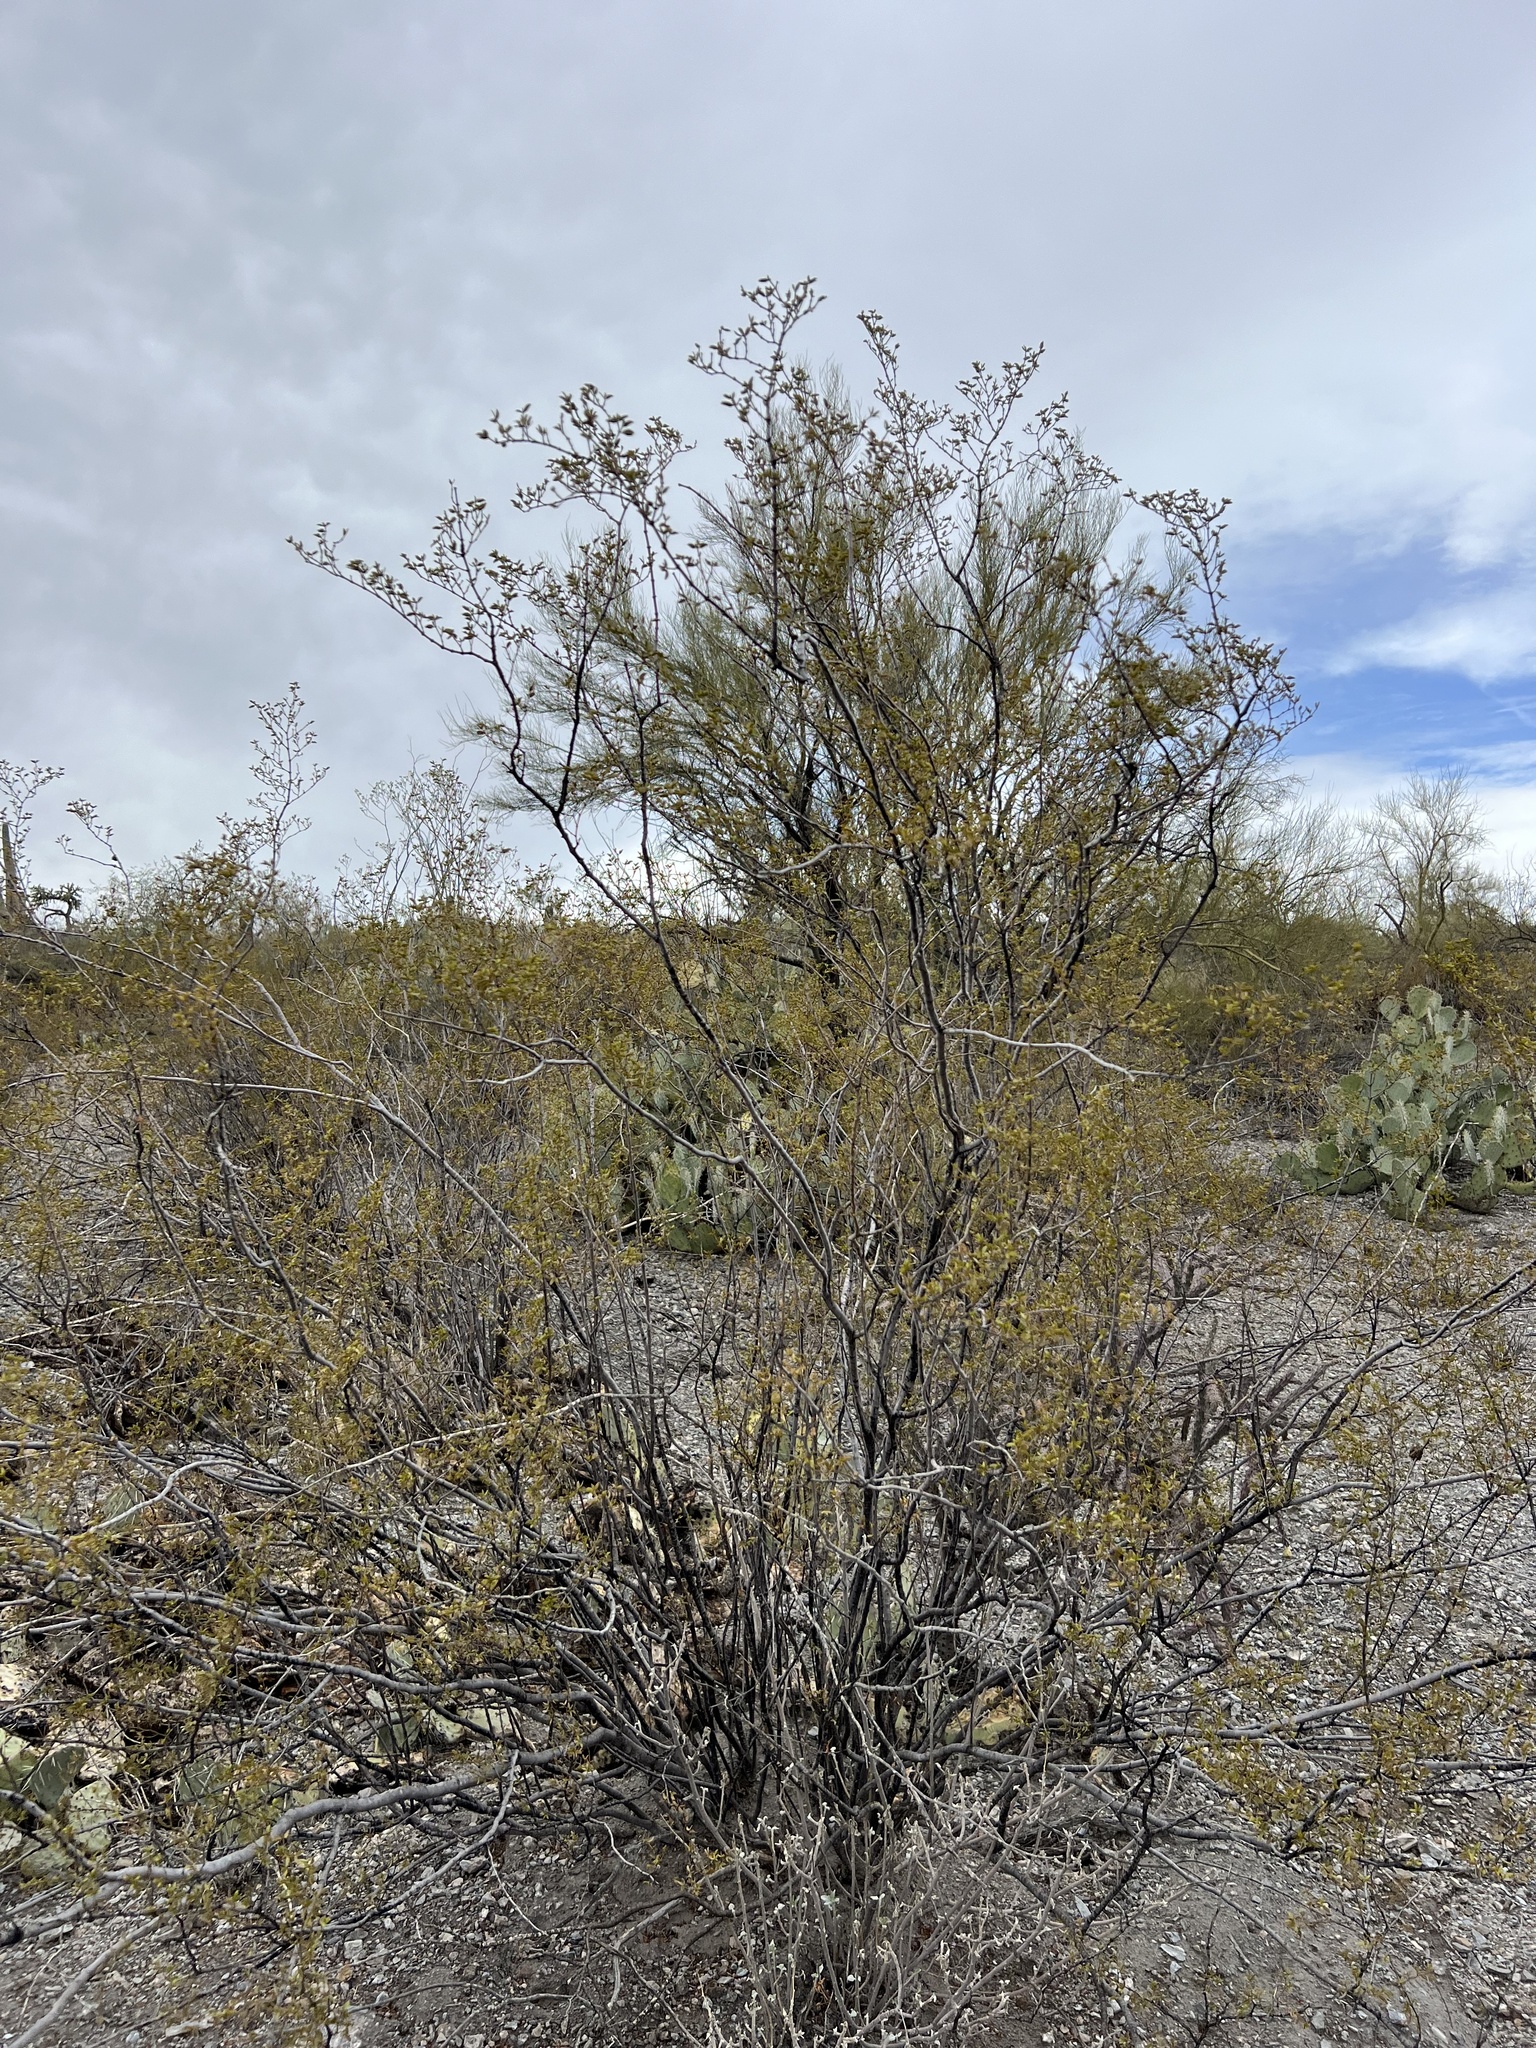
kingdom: Plantae
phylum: Tracheophyta
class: Magnoliopsida
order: Zygophyllales
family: Zygophyllaceae
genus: Larrea
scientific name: Larrea tridentata
